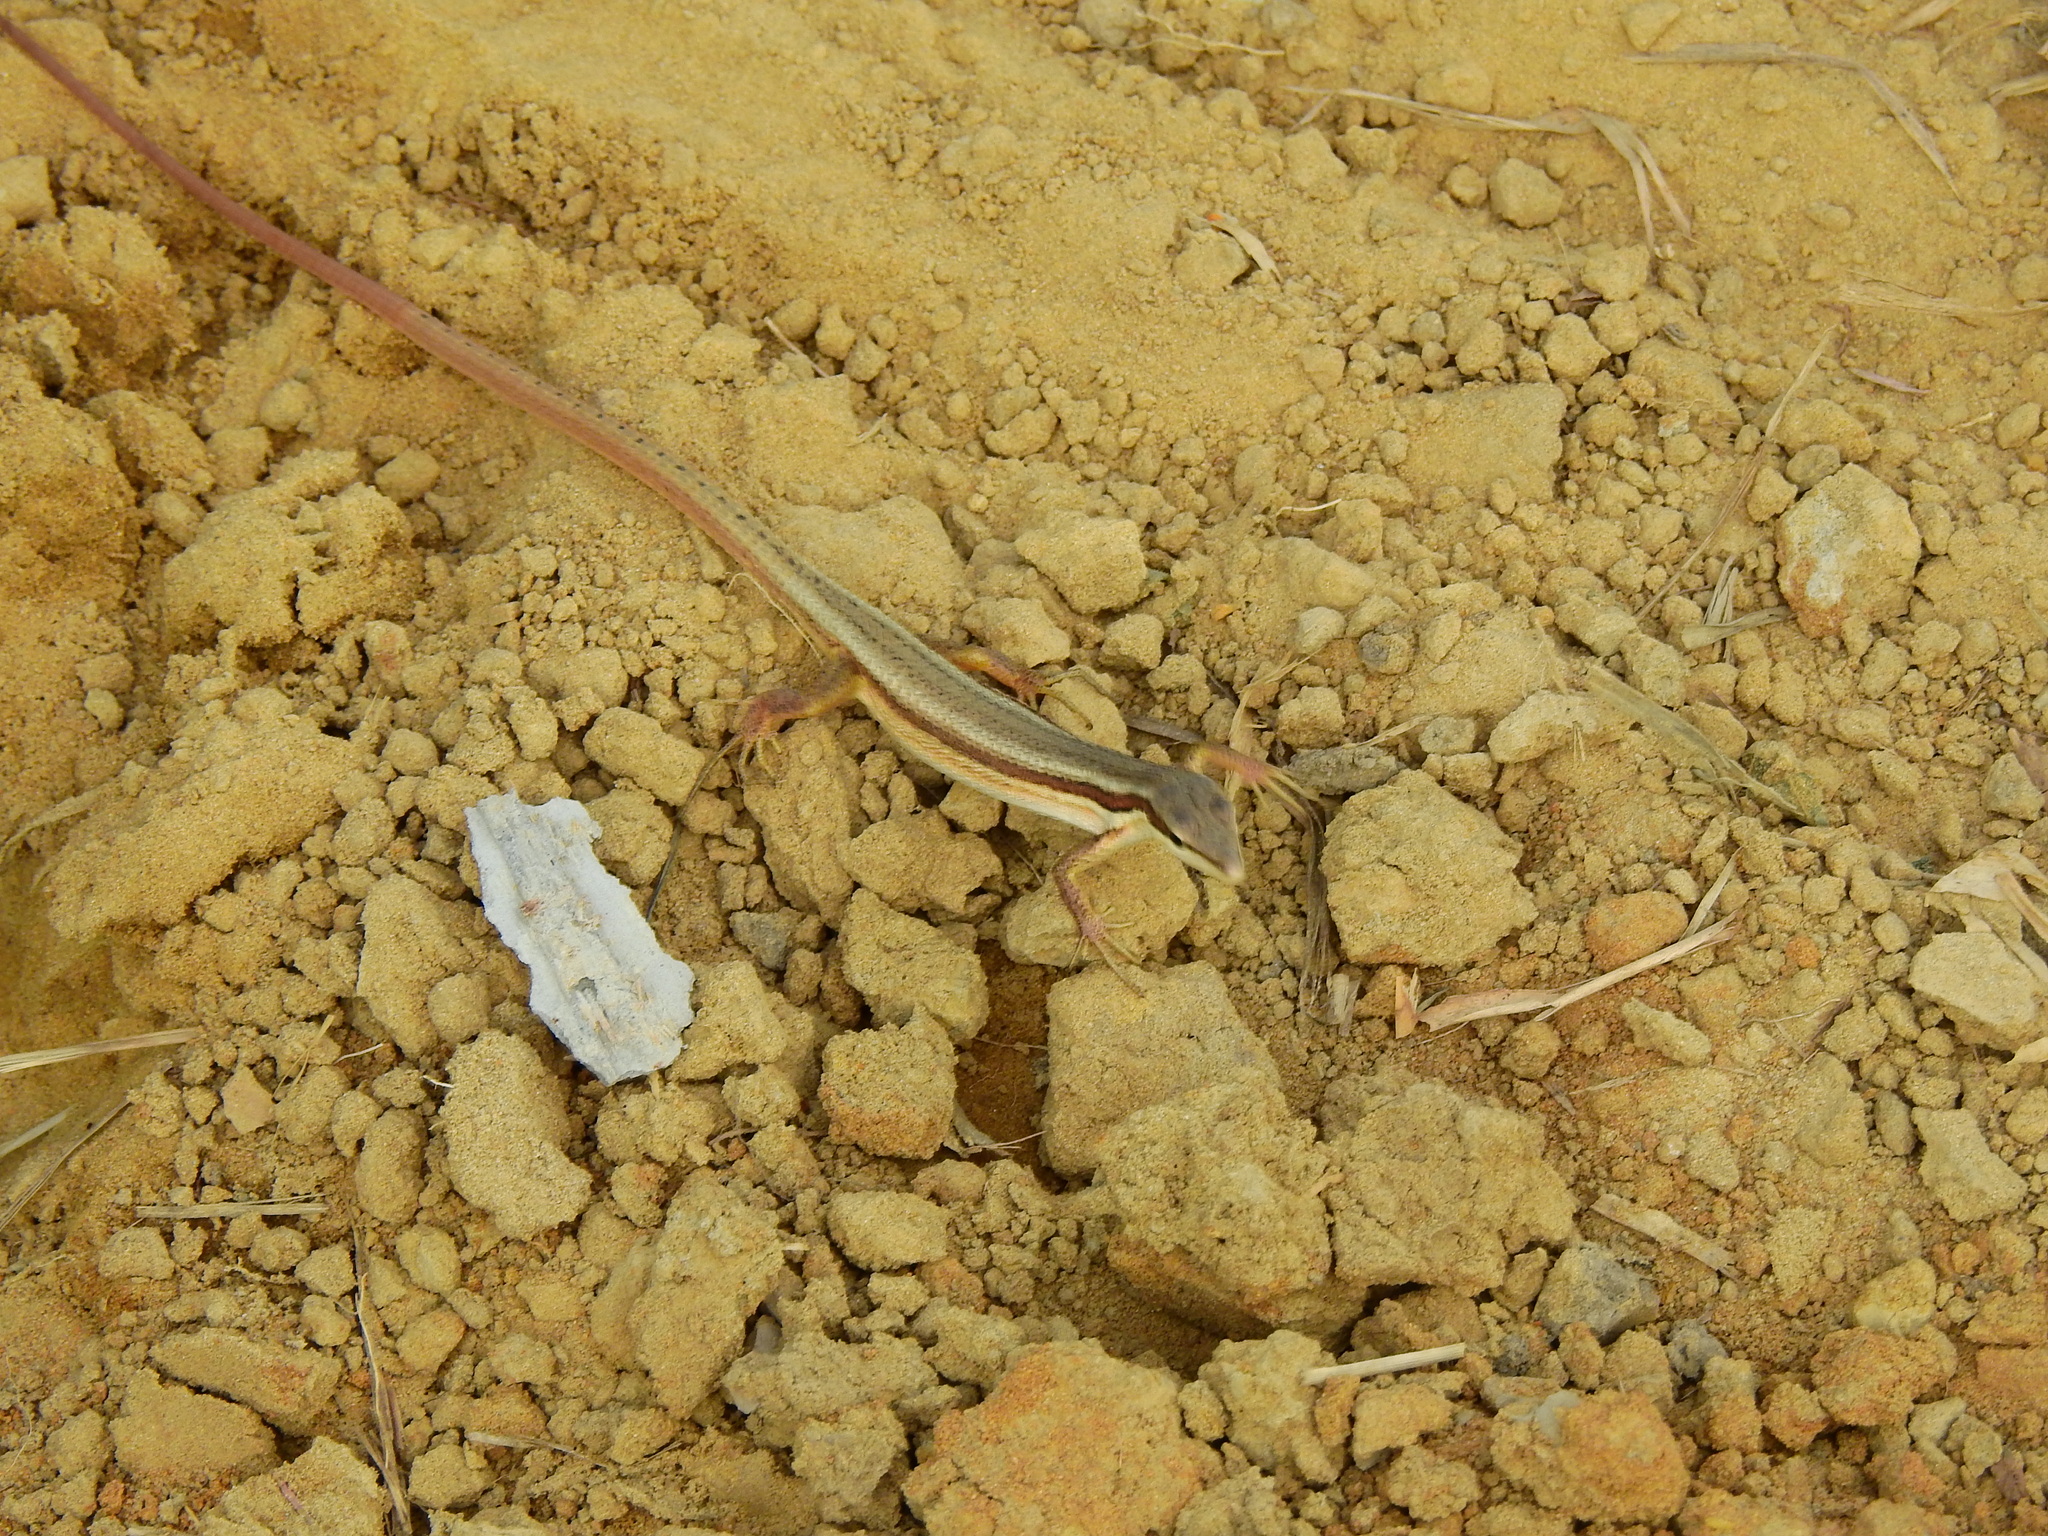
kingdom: Animalia
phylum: Chordata
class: Squamata
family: Lacertidae
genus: Takydromus
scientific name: Takydromus kuehnei
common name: Kuhne’s grass lizard
